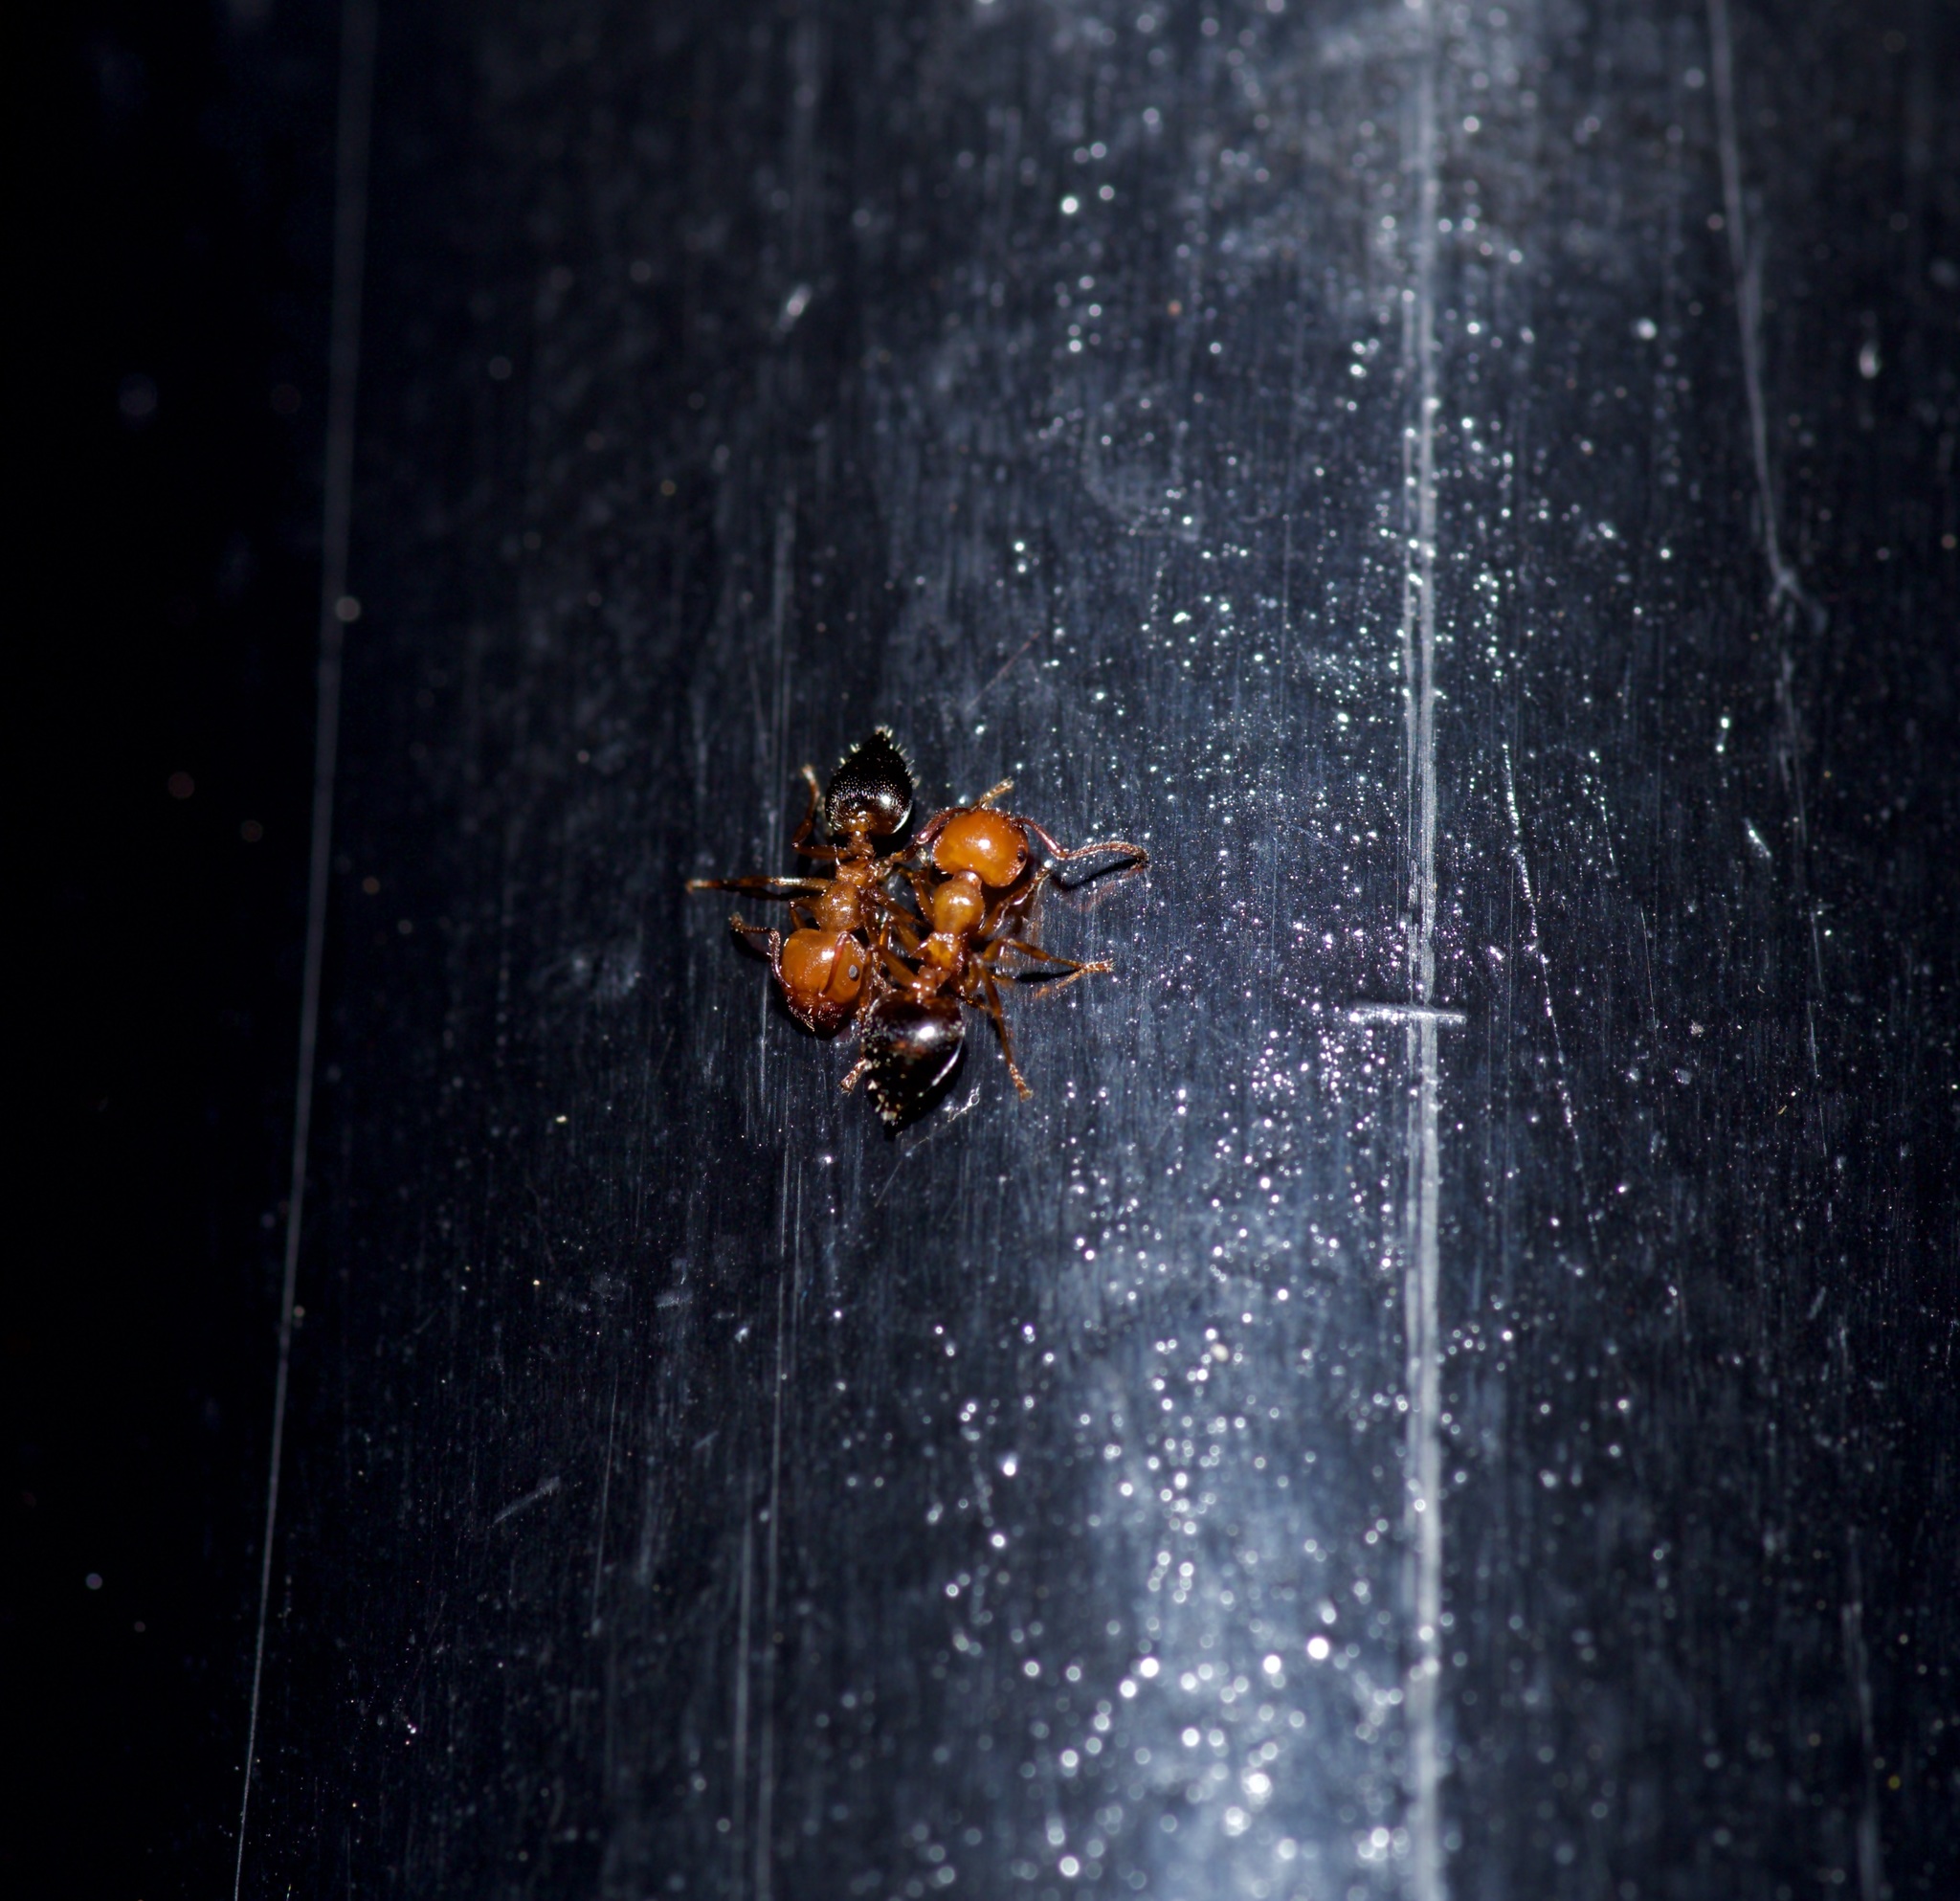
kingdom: Animalia
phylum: Arthropoda
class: Insecta
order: Hymenoptera
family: Formicidae
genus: Crematogaster
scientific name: Crematogaster laeviuscula
